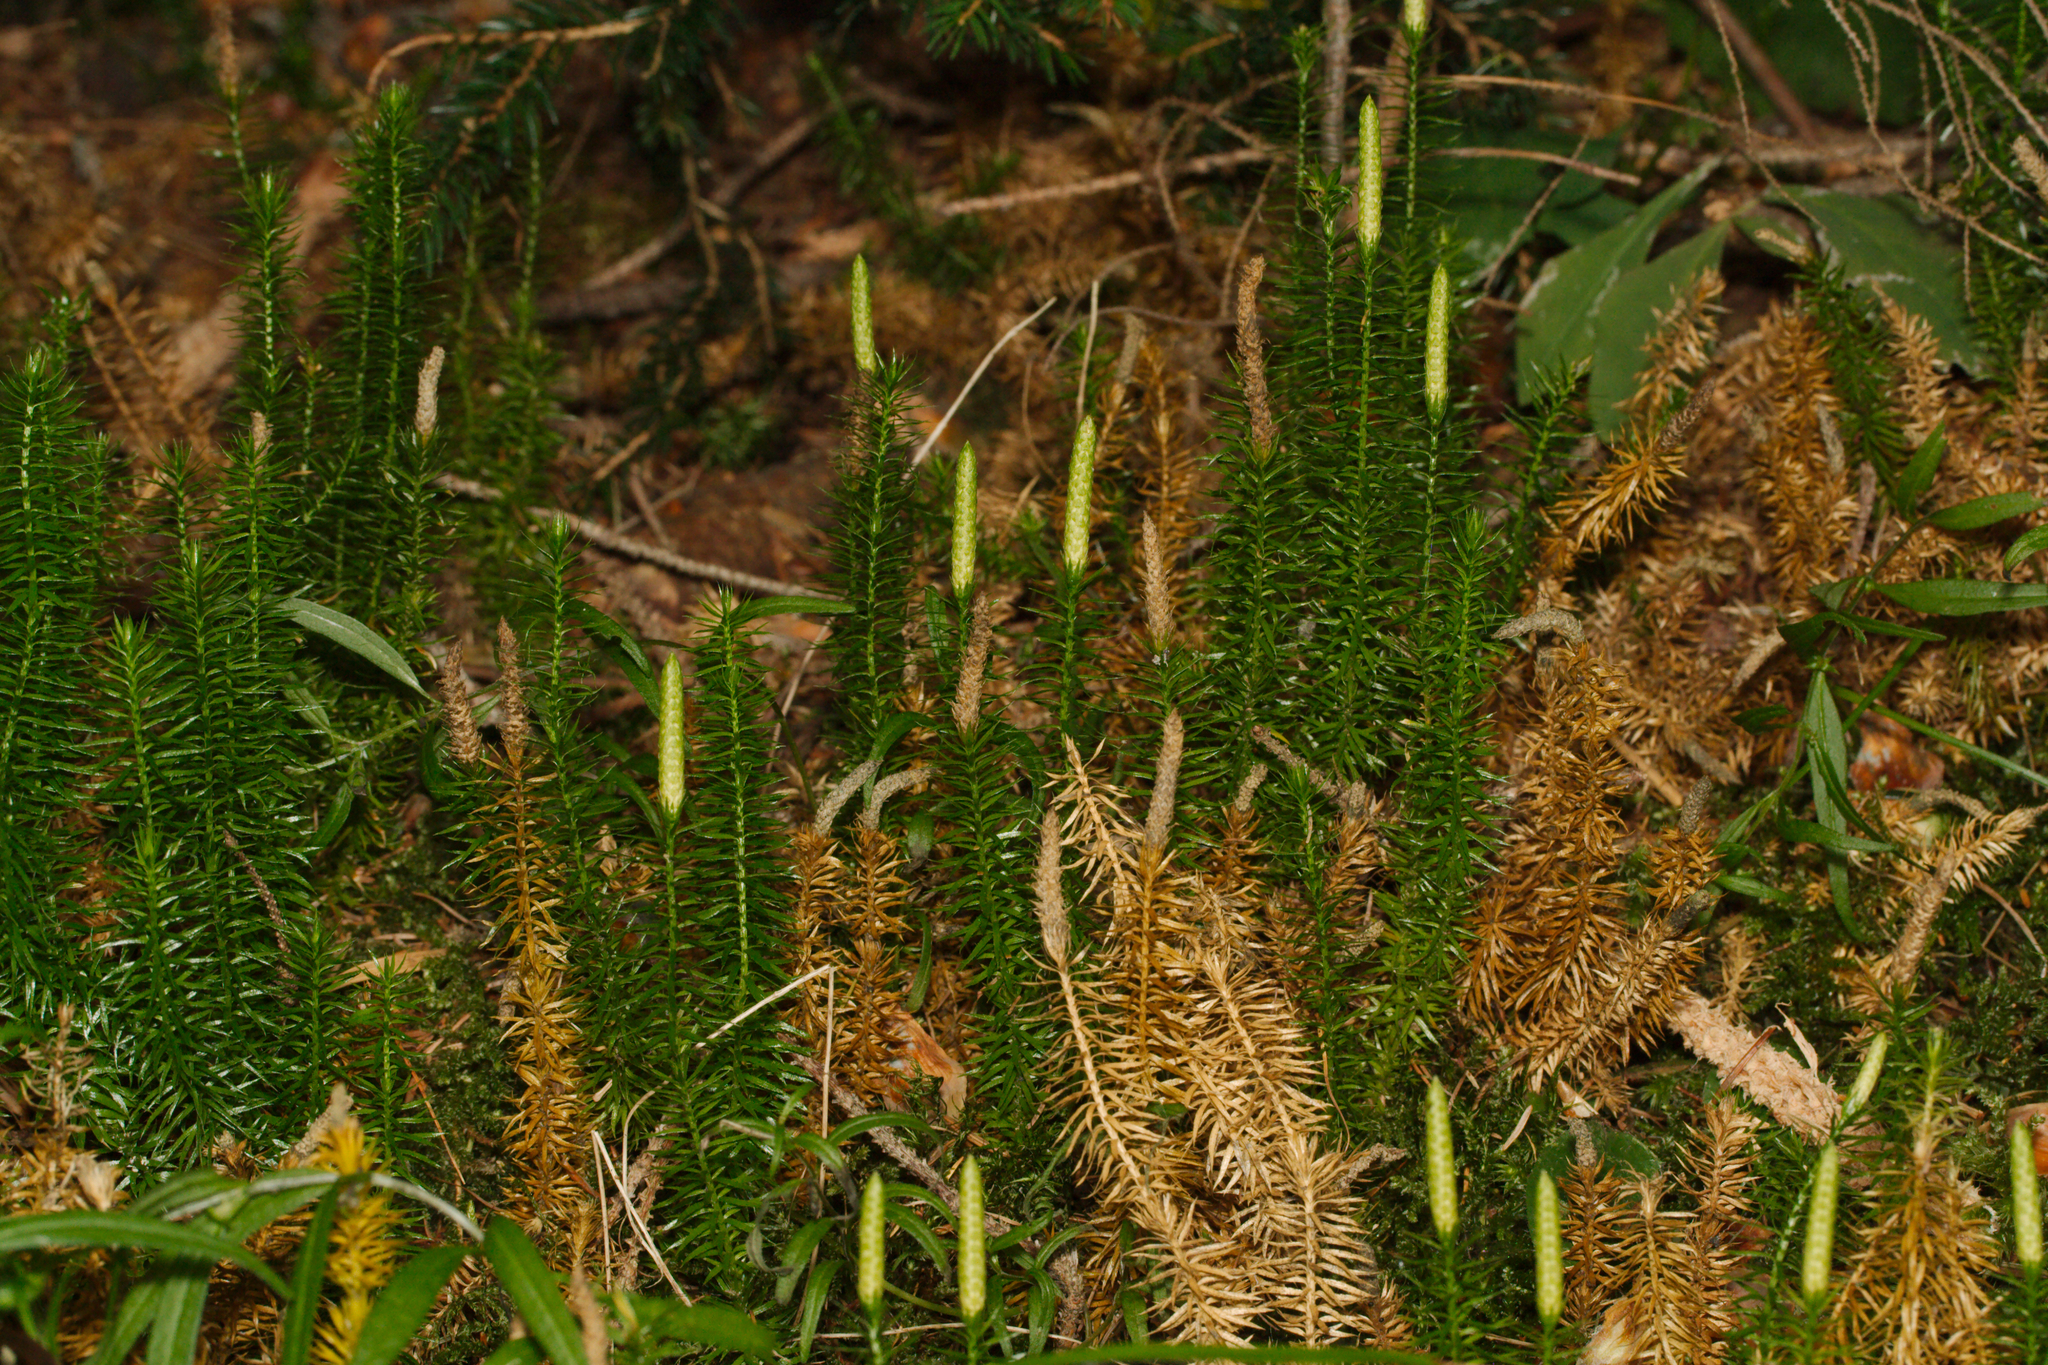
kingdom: Plantae
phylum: Tracheophyta
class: Lycopodiopsida
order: Lycopodiales
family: Lycopodiaceae
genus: Spinulum
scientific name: Spinulum annotinum
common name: Interrupted club-moss
